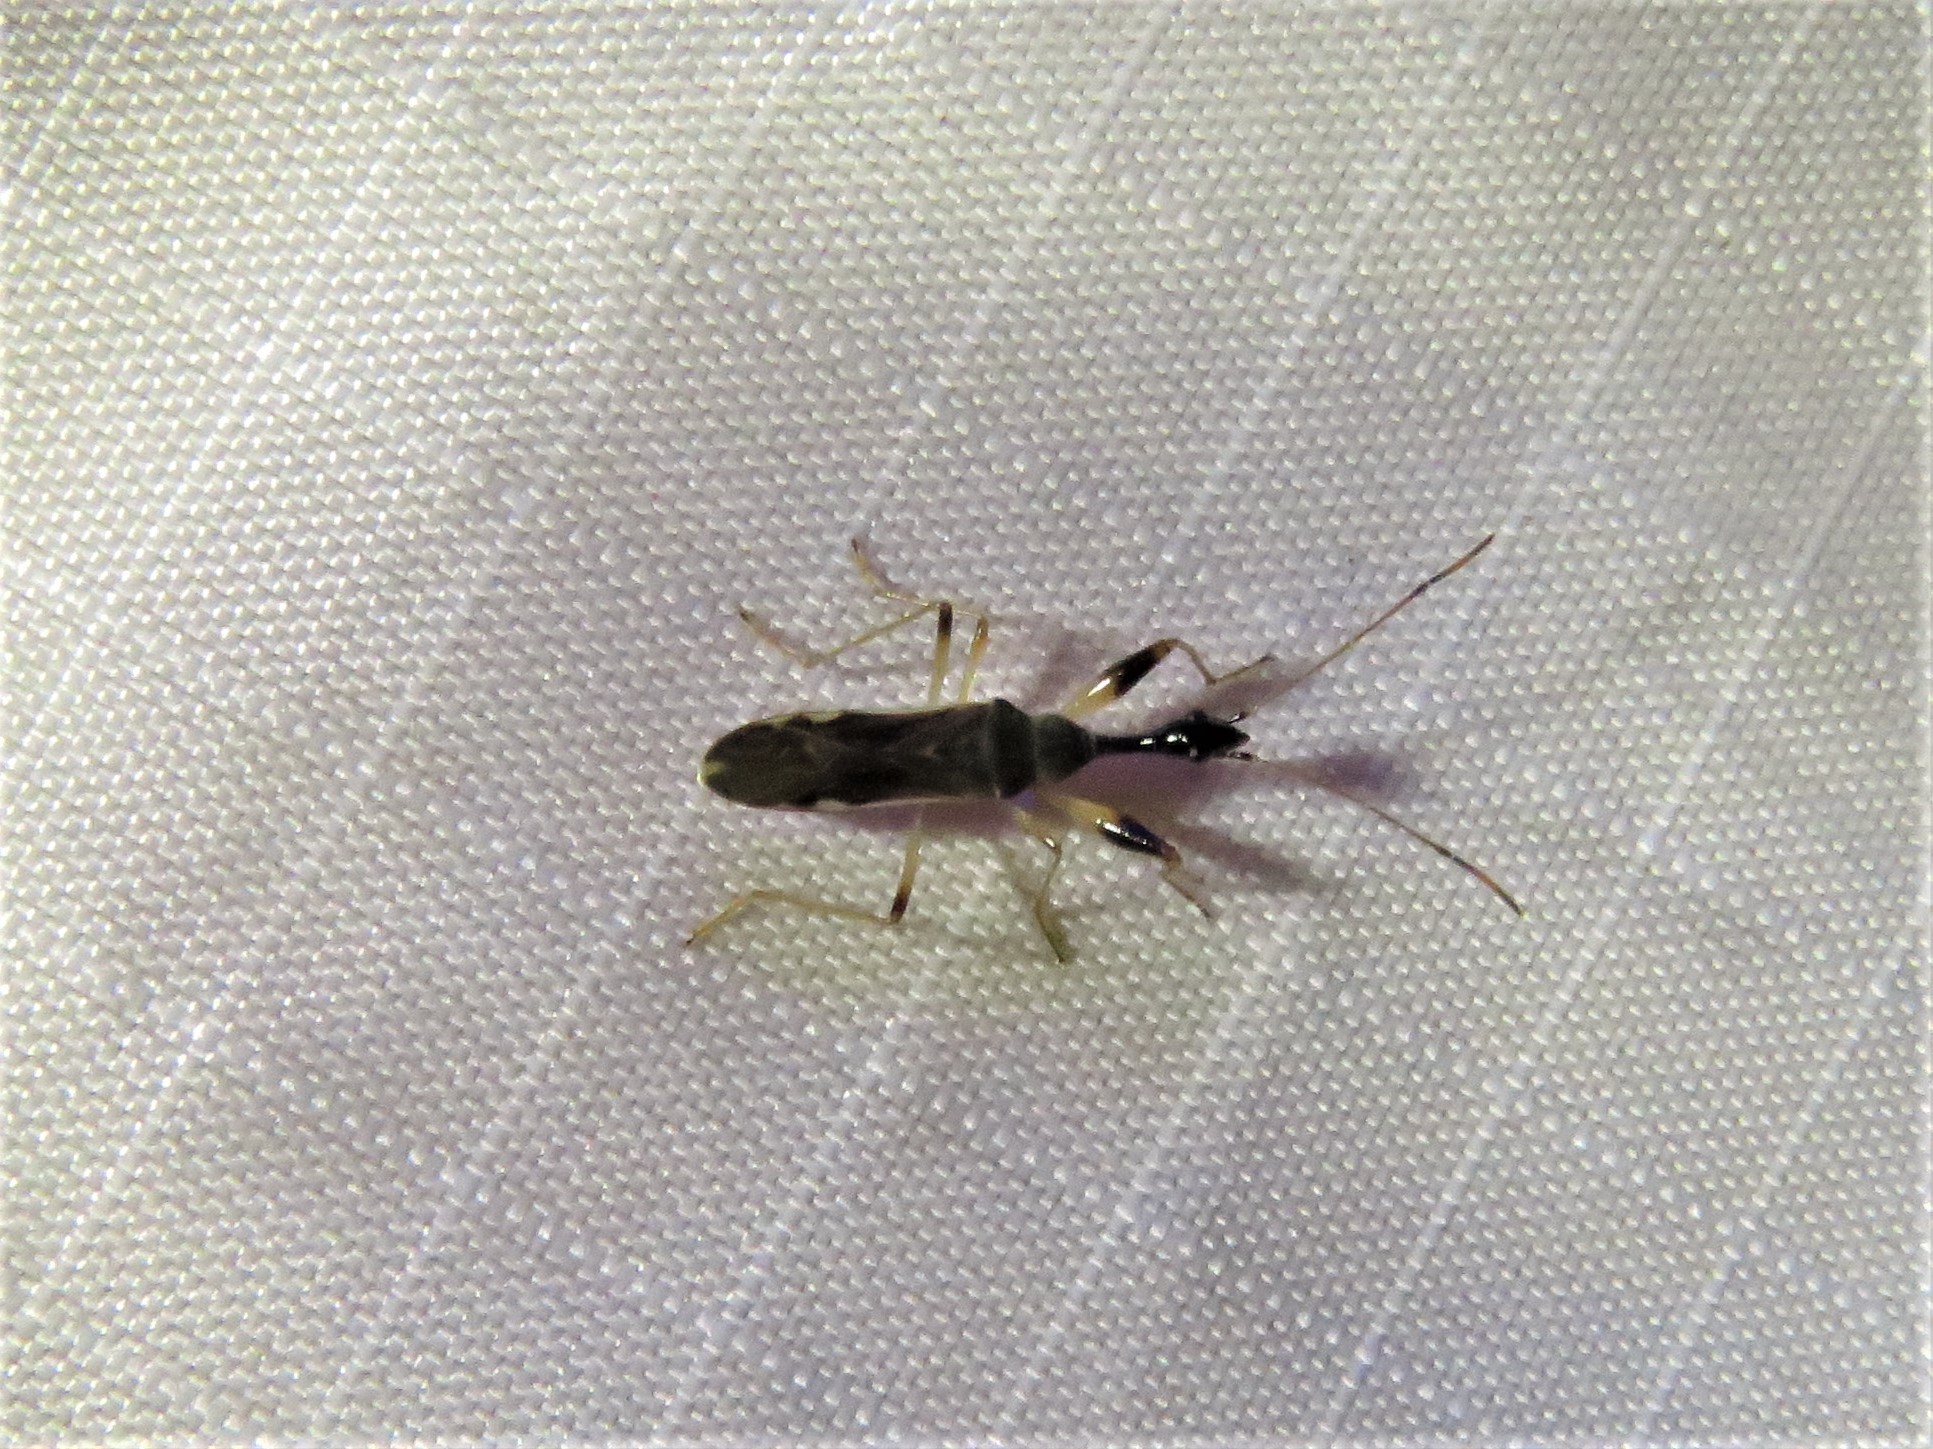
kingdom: Animalia
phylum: Arthropoda
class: Insecta
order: Hemiptera
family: Rhyparochromidae
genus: Myodocha
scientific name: Myodocha serripes
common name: Long-necked seed bug
